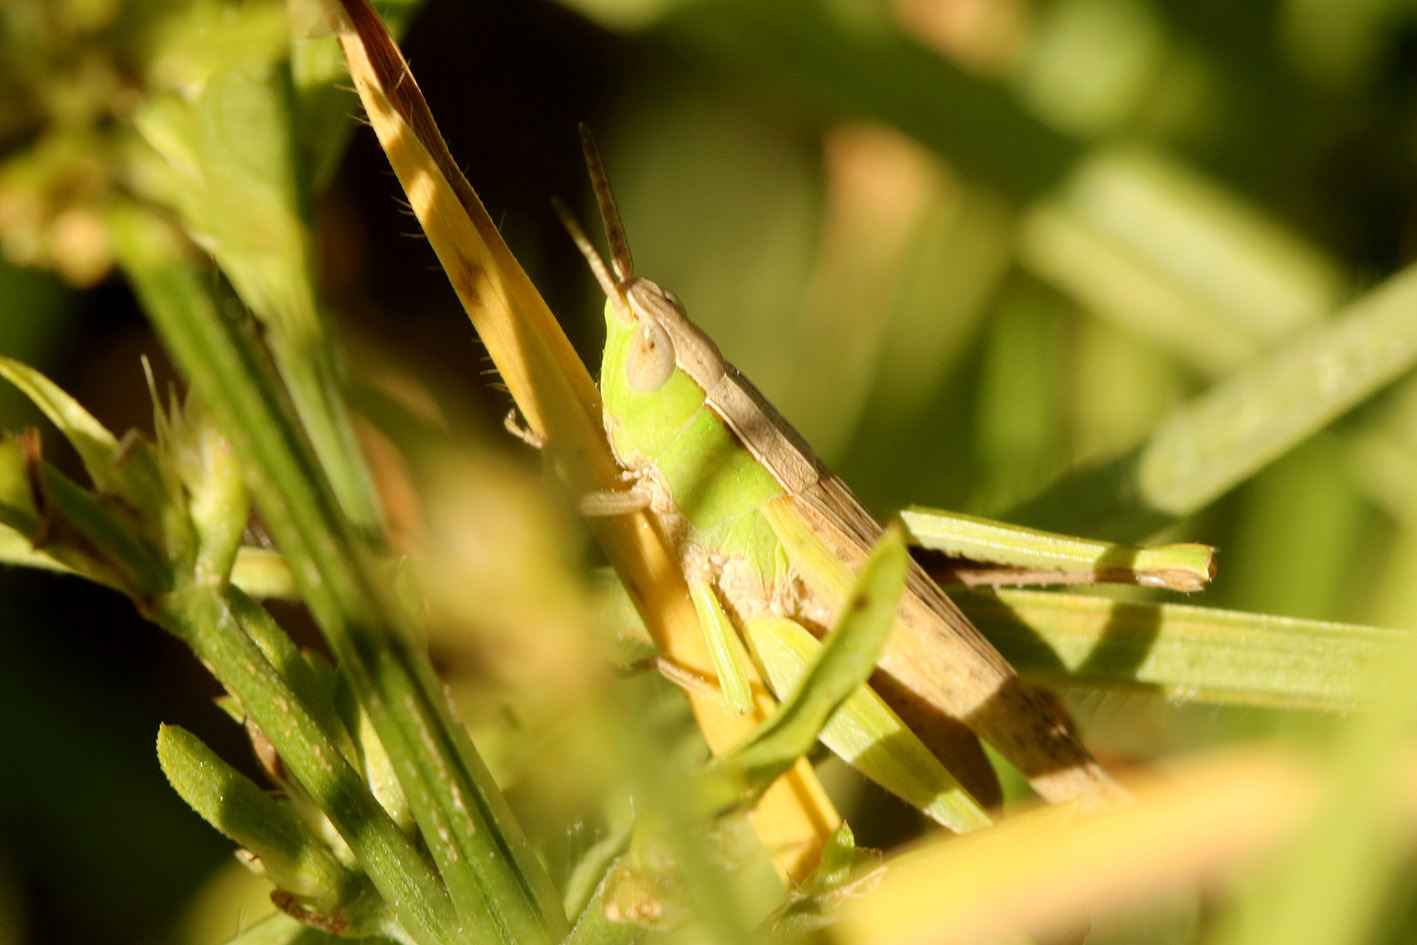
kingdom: Animalia
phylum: Arthropoda
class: Insecta
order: Orthoptera
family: Acrididae
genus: Laplatacris
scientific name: Laplatacris dispar
